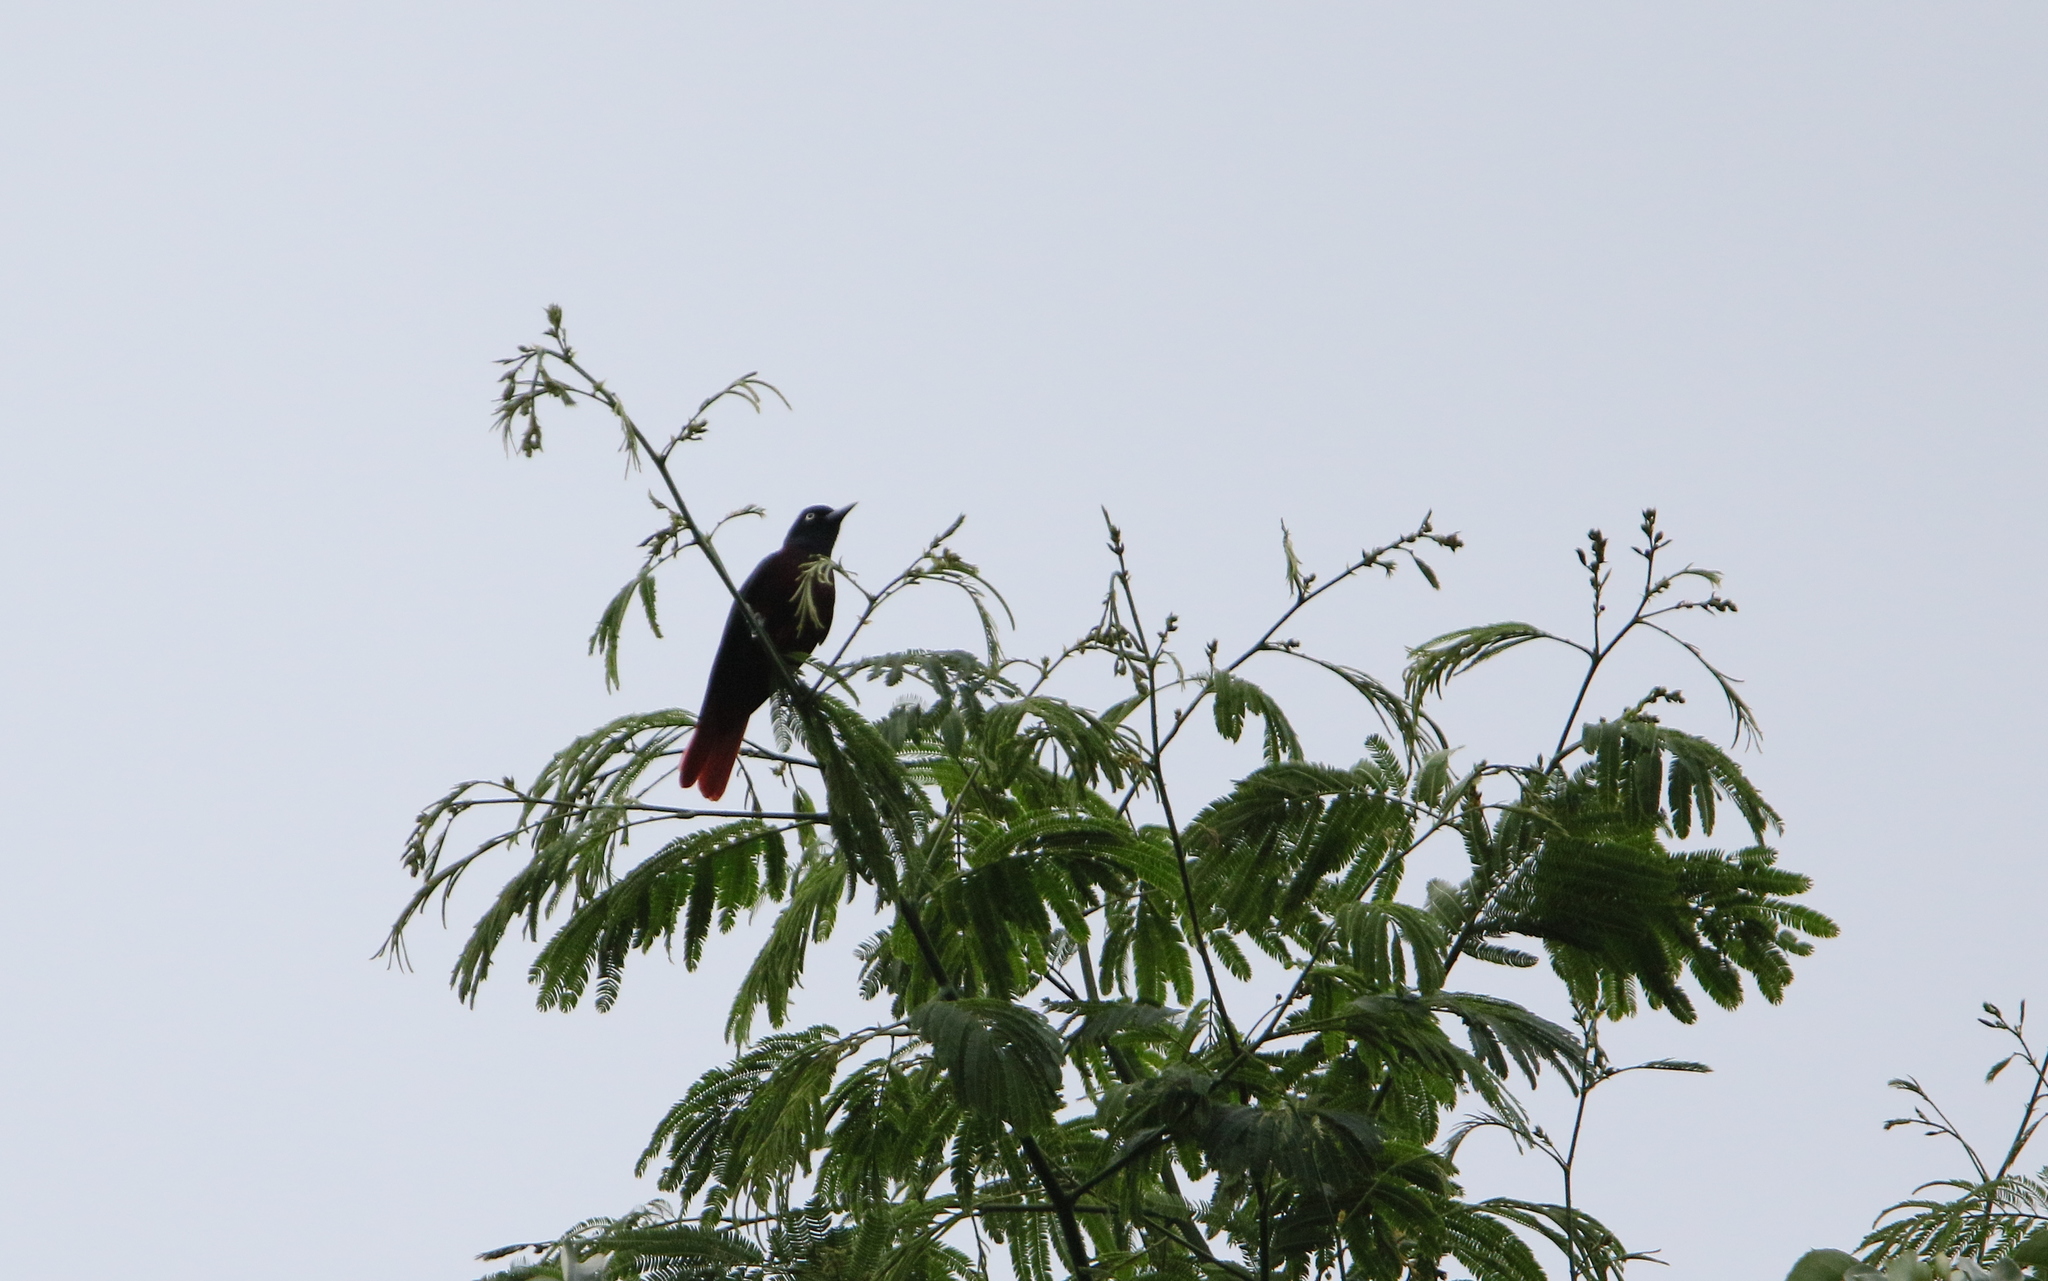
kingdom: Animalia
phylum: Chordata
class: Aves
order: Passeriformes
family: Oriolidae
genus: Oriolus
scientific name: Oriolus traillii
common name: Maroon oriole
